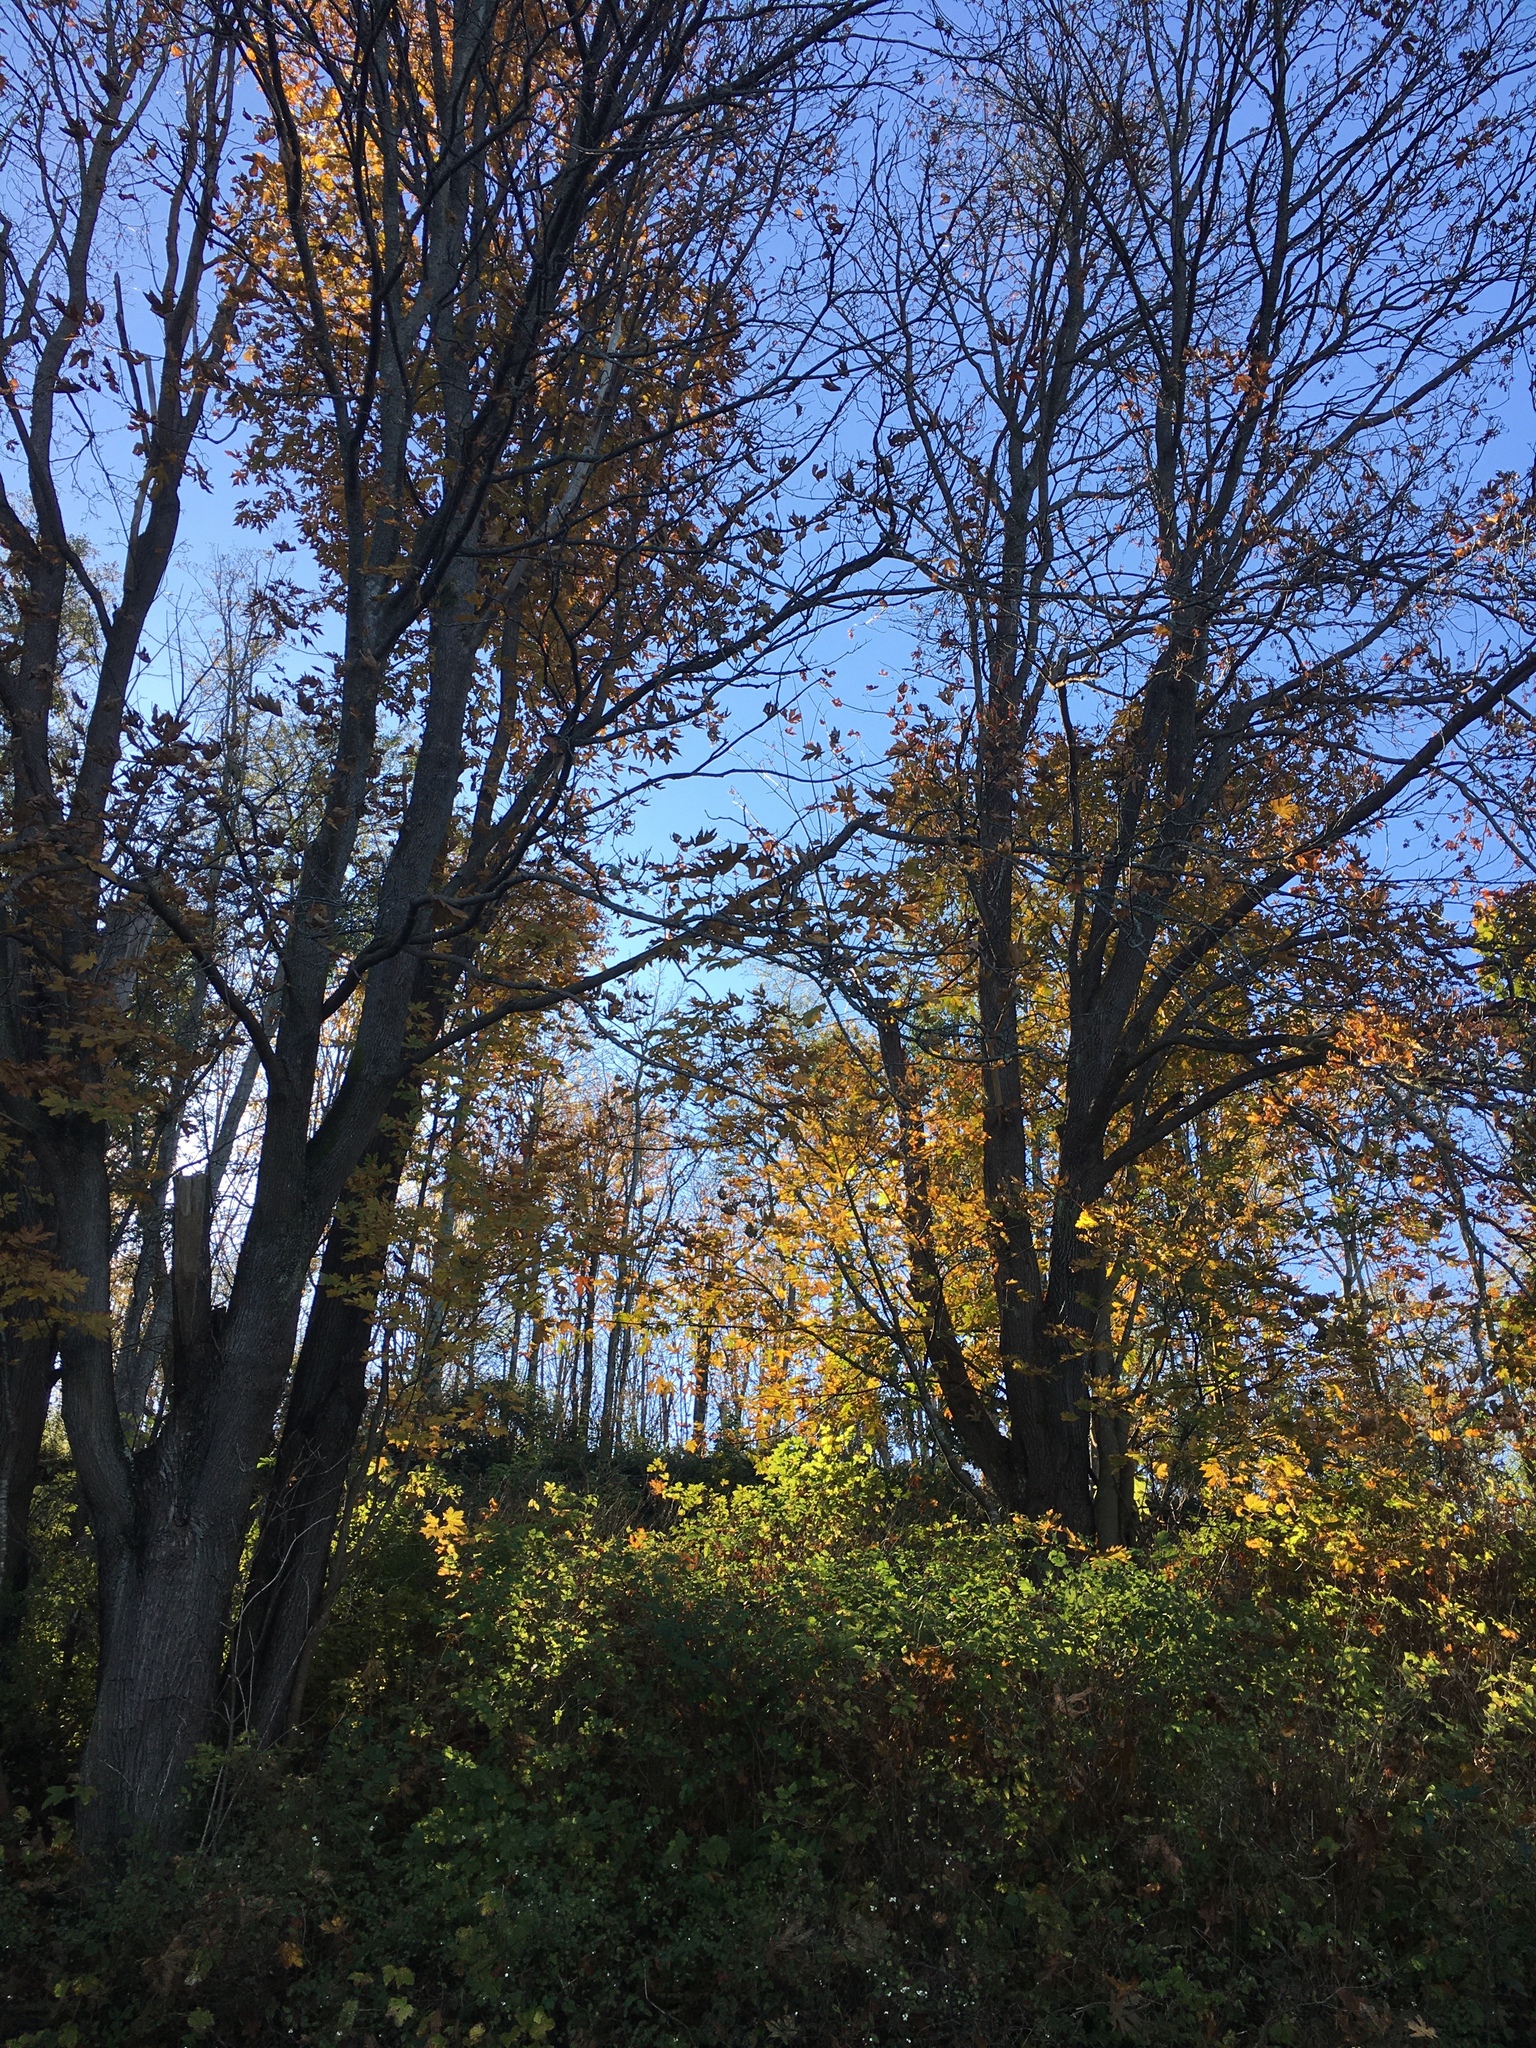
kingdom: Plantae
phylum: Tracheophyta
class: Magnoliopsida
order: Sapindales
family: Sapindaceae
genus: Acer
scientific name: Acer macrophyllum
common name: Oregon maple
